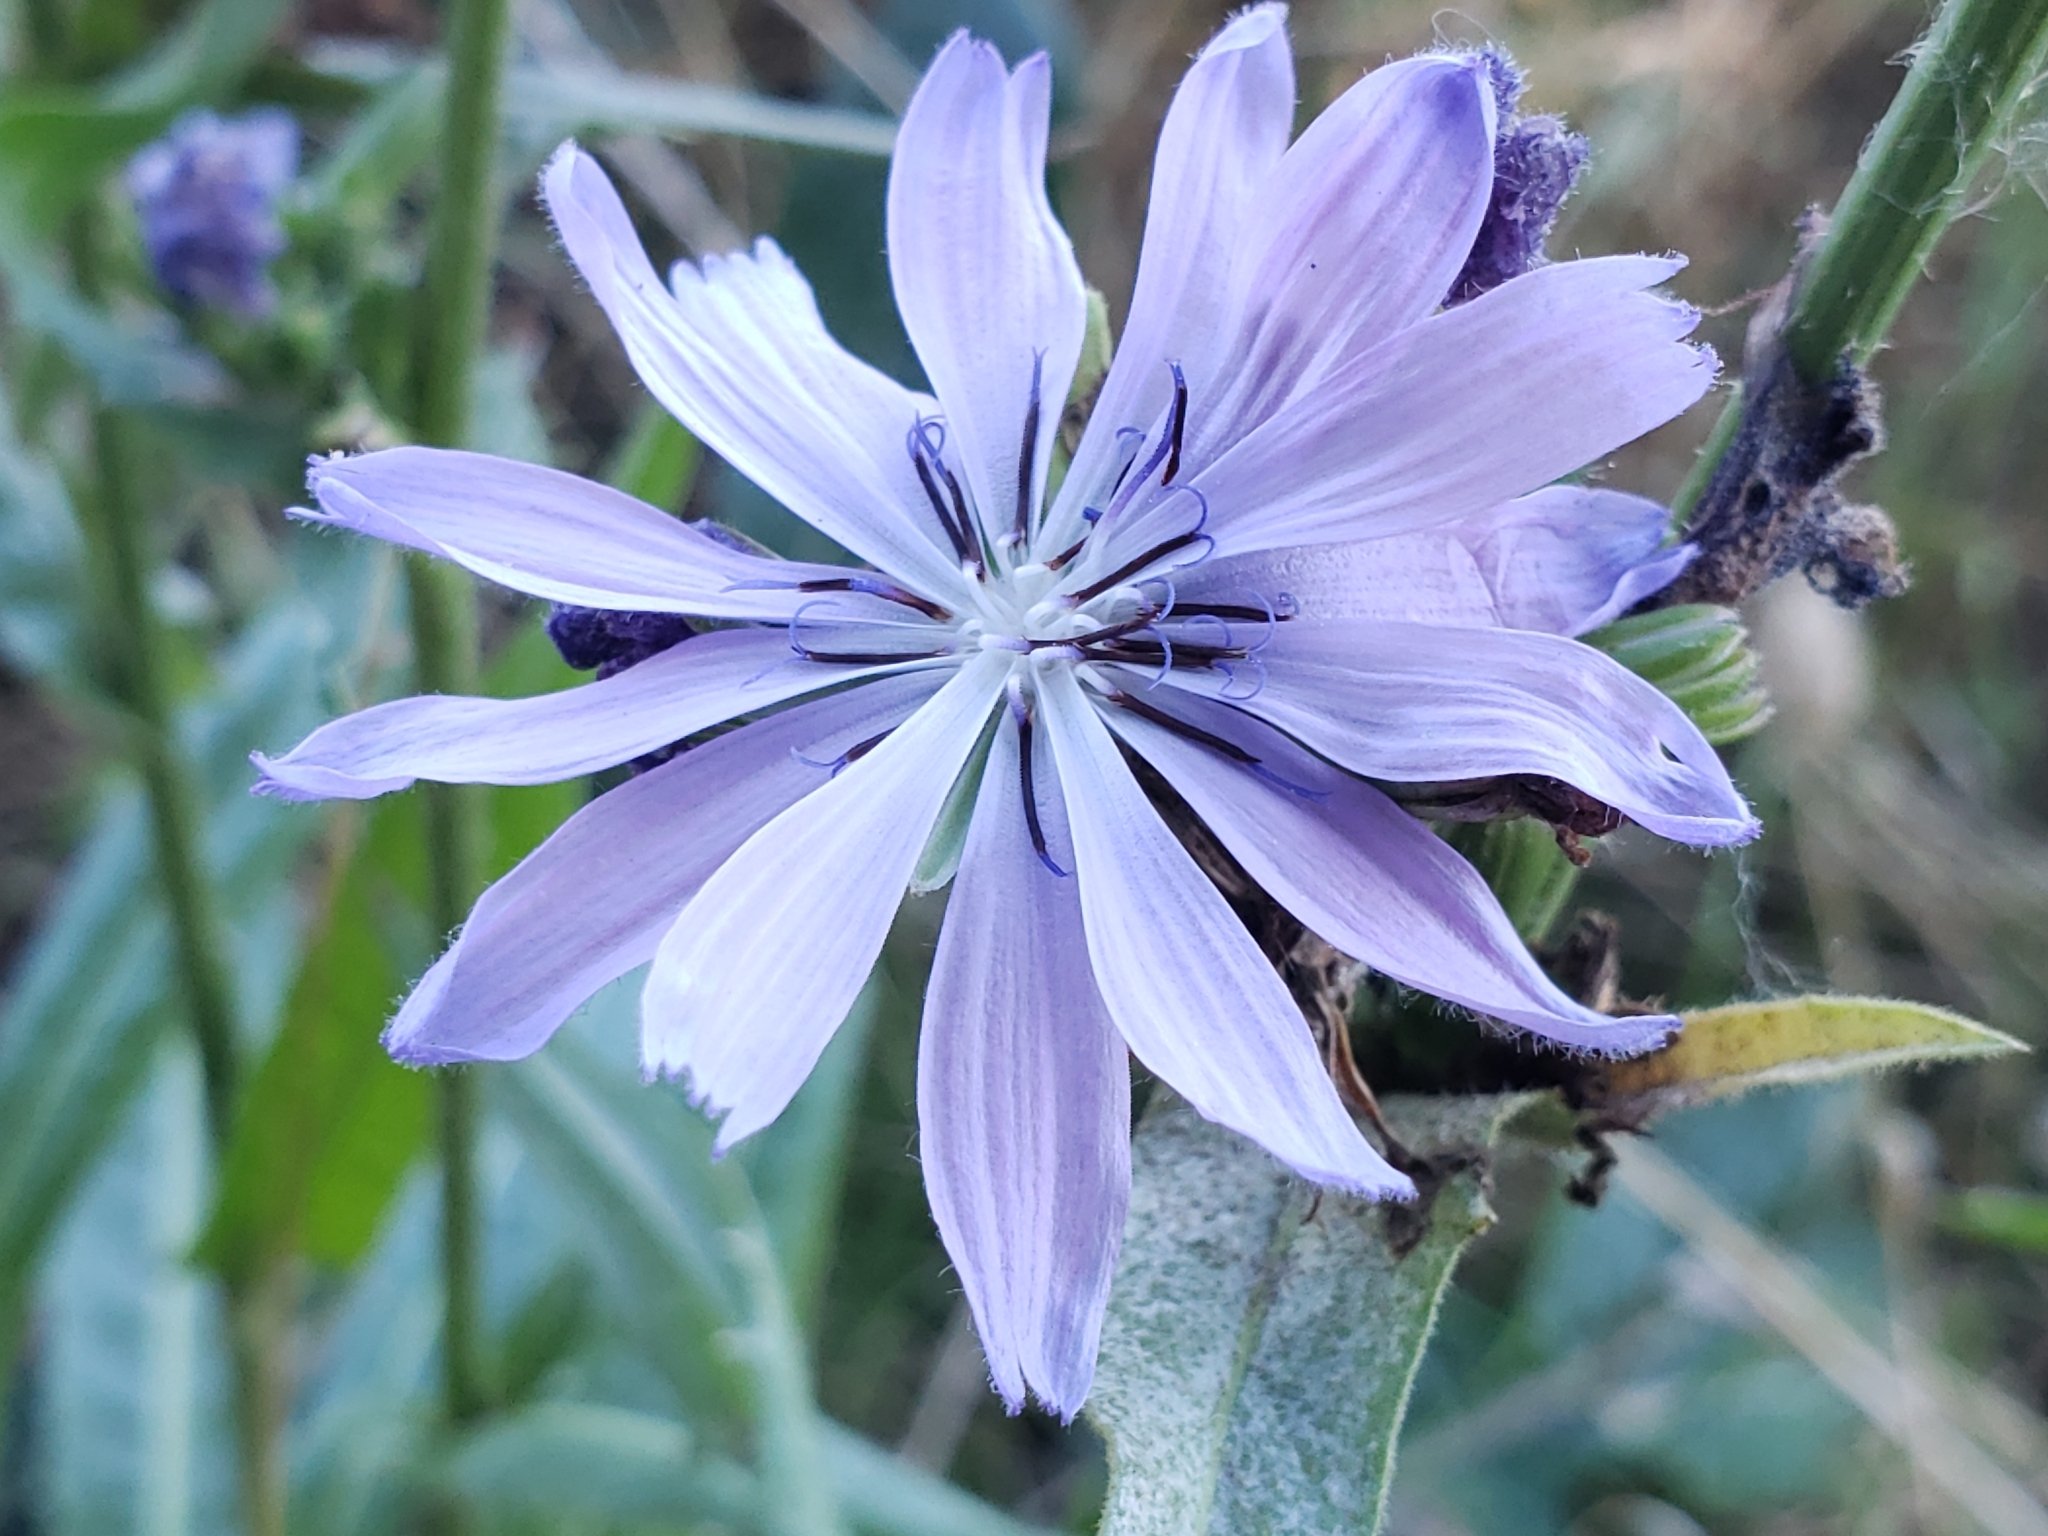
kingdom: Plantae
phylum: Tracheophyta
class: Magnoliopsida
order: Asterales
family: Asteraceae
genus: Cichorium
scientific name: Cichorium intybus
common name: Chicory
